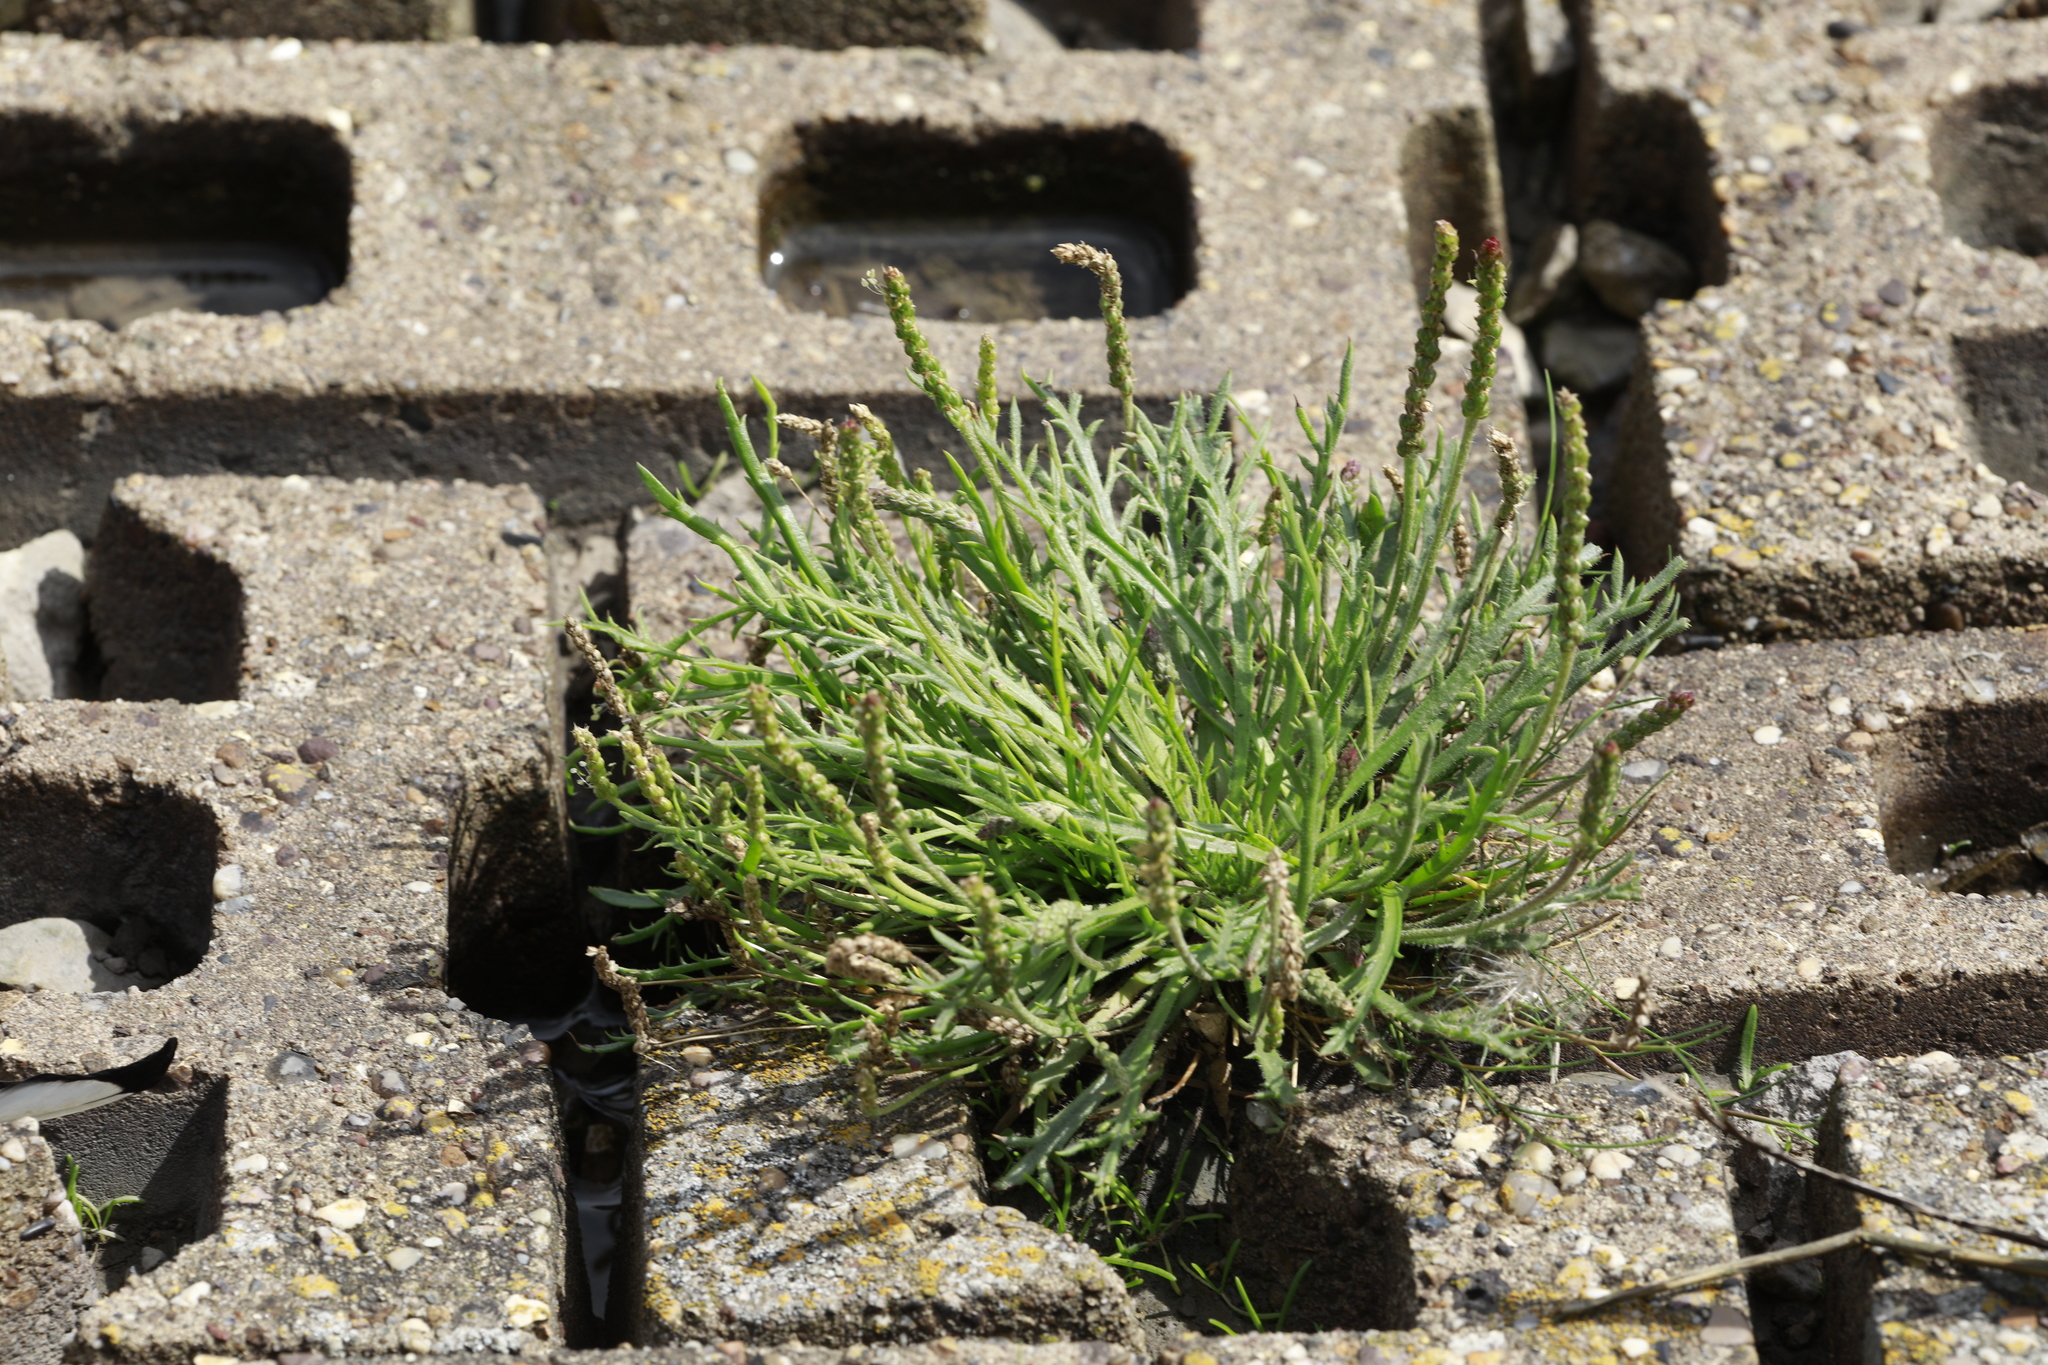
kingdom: Plantae
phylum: Tracheophyta
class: Magnoliopsida
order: Lamiales
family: Plantaginaceae
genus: Plantago
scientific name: Plantago coronopus
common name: Buck's-horn plantain
